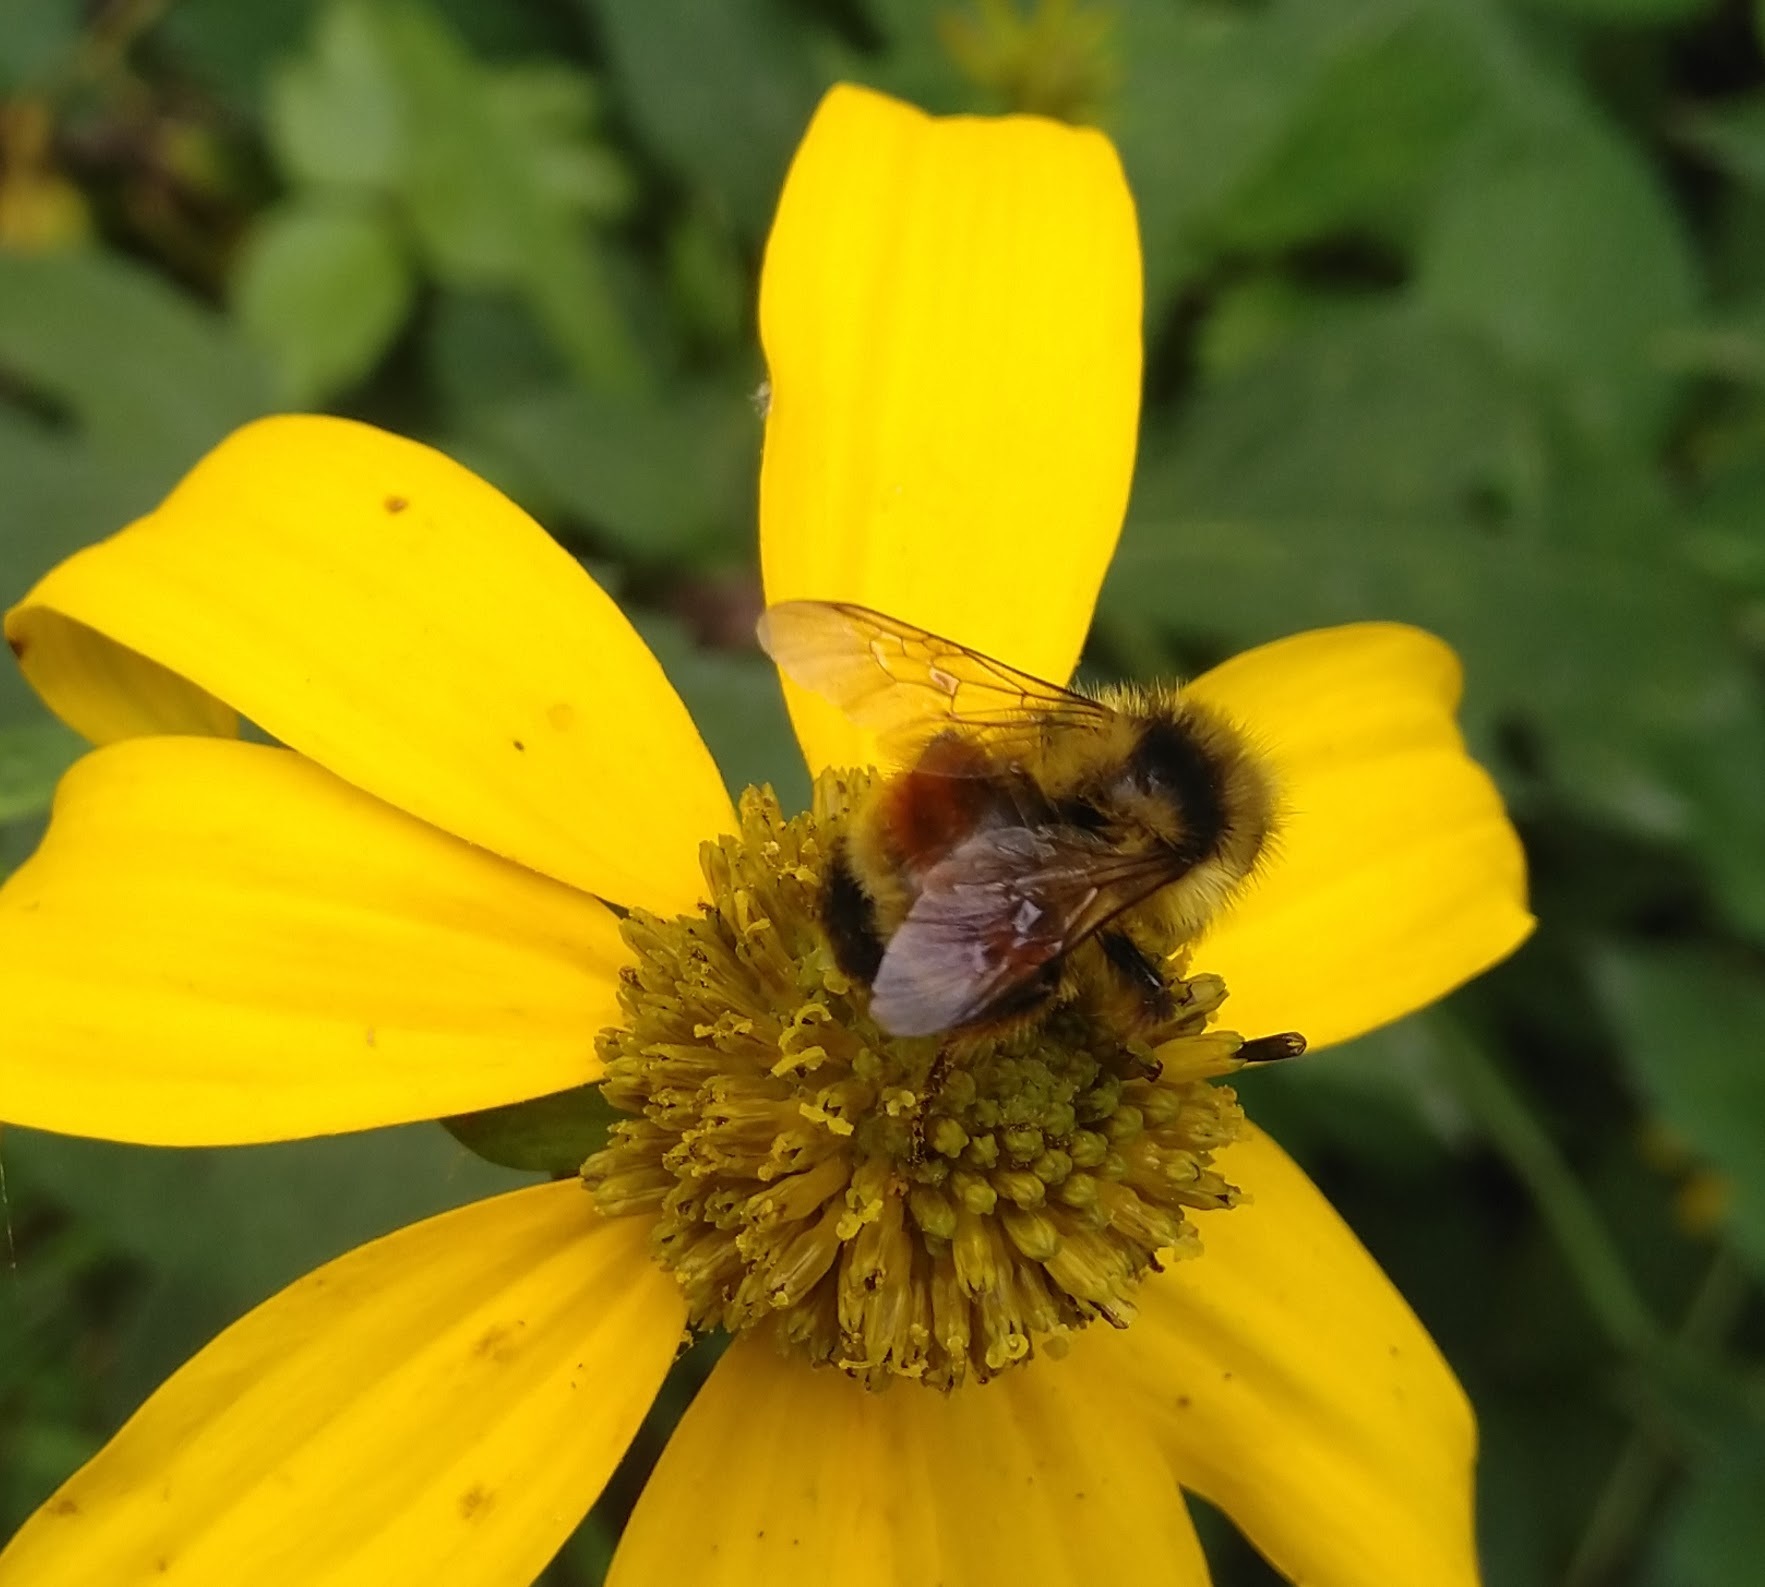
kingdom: Animalia
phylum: Arthropoda
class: Insecta
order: Hymenoptera
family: Apidae
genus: Bombus
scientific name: Bombus ternarius
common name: Tri-colored bumble bee
